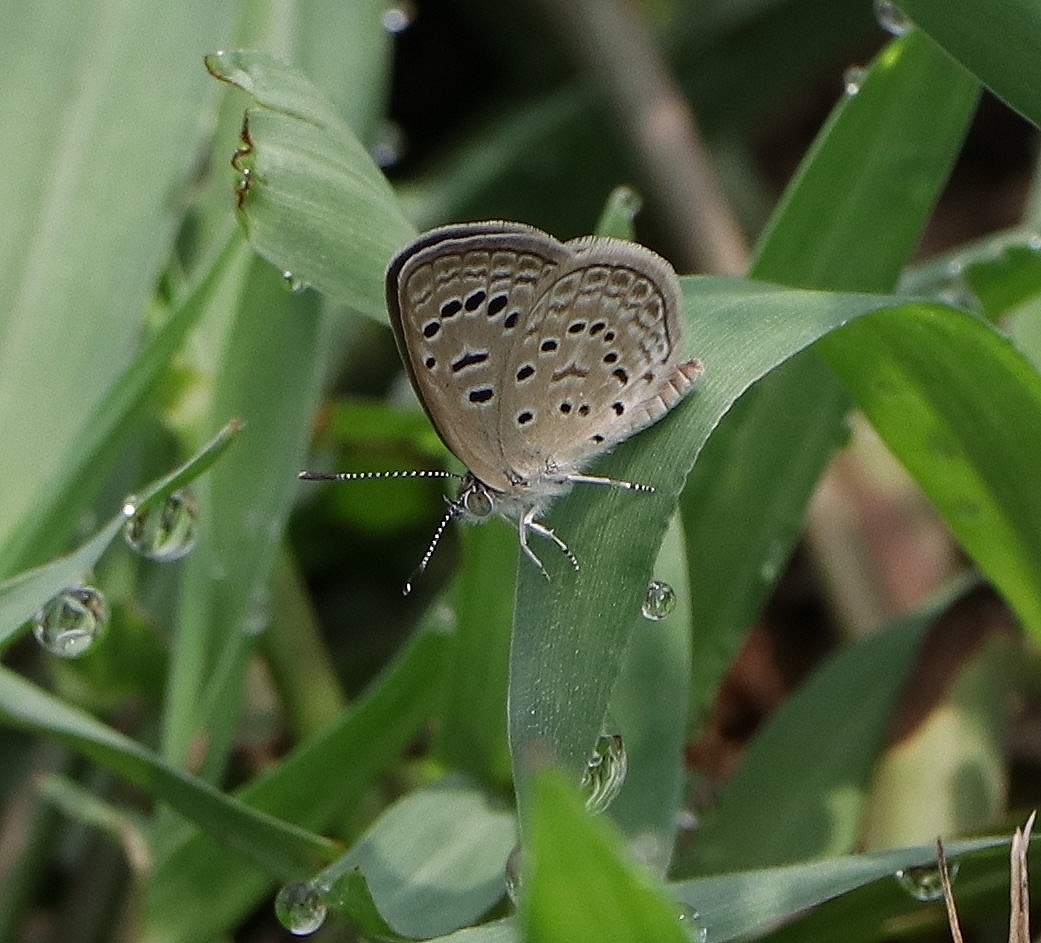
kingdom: Animalia
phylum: Arthropoda
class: Insecta
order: Lepidoptera
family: Lycaenidae
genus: Zizeeria
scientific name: Zizeeria karsandra
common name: Dark grass blue
